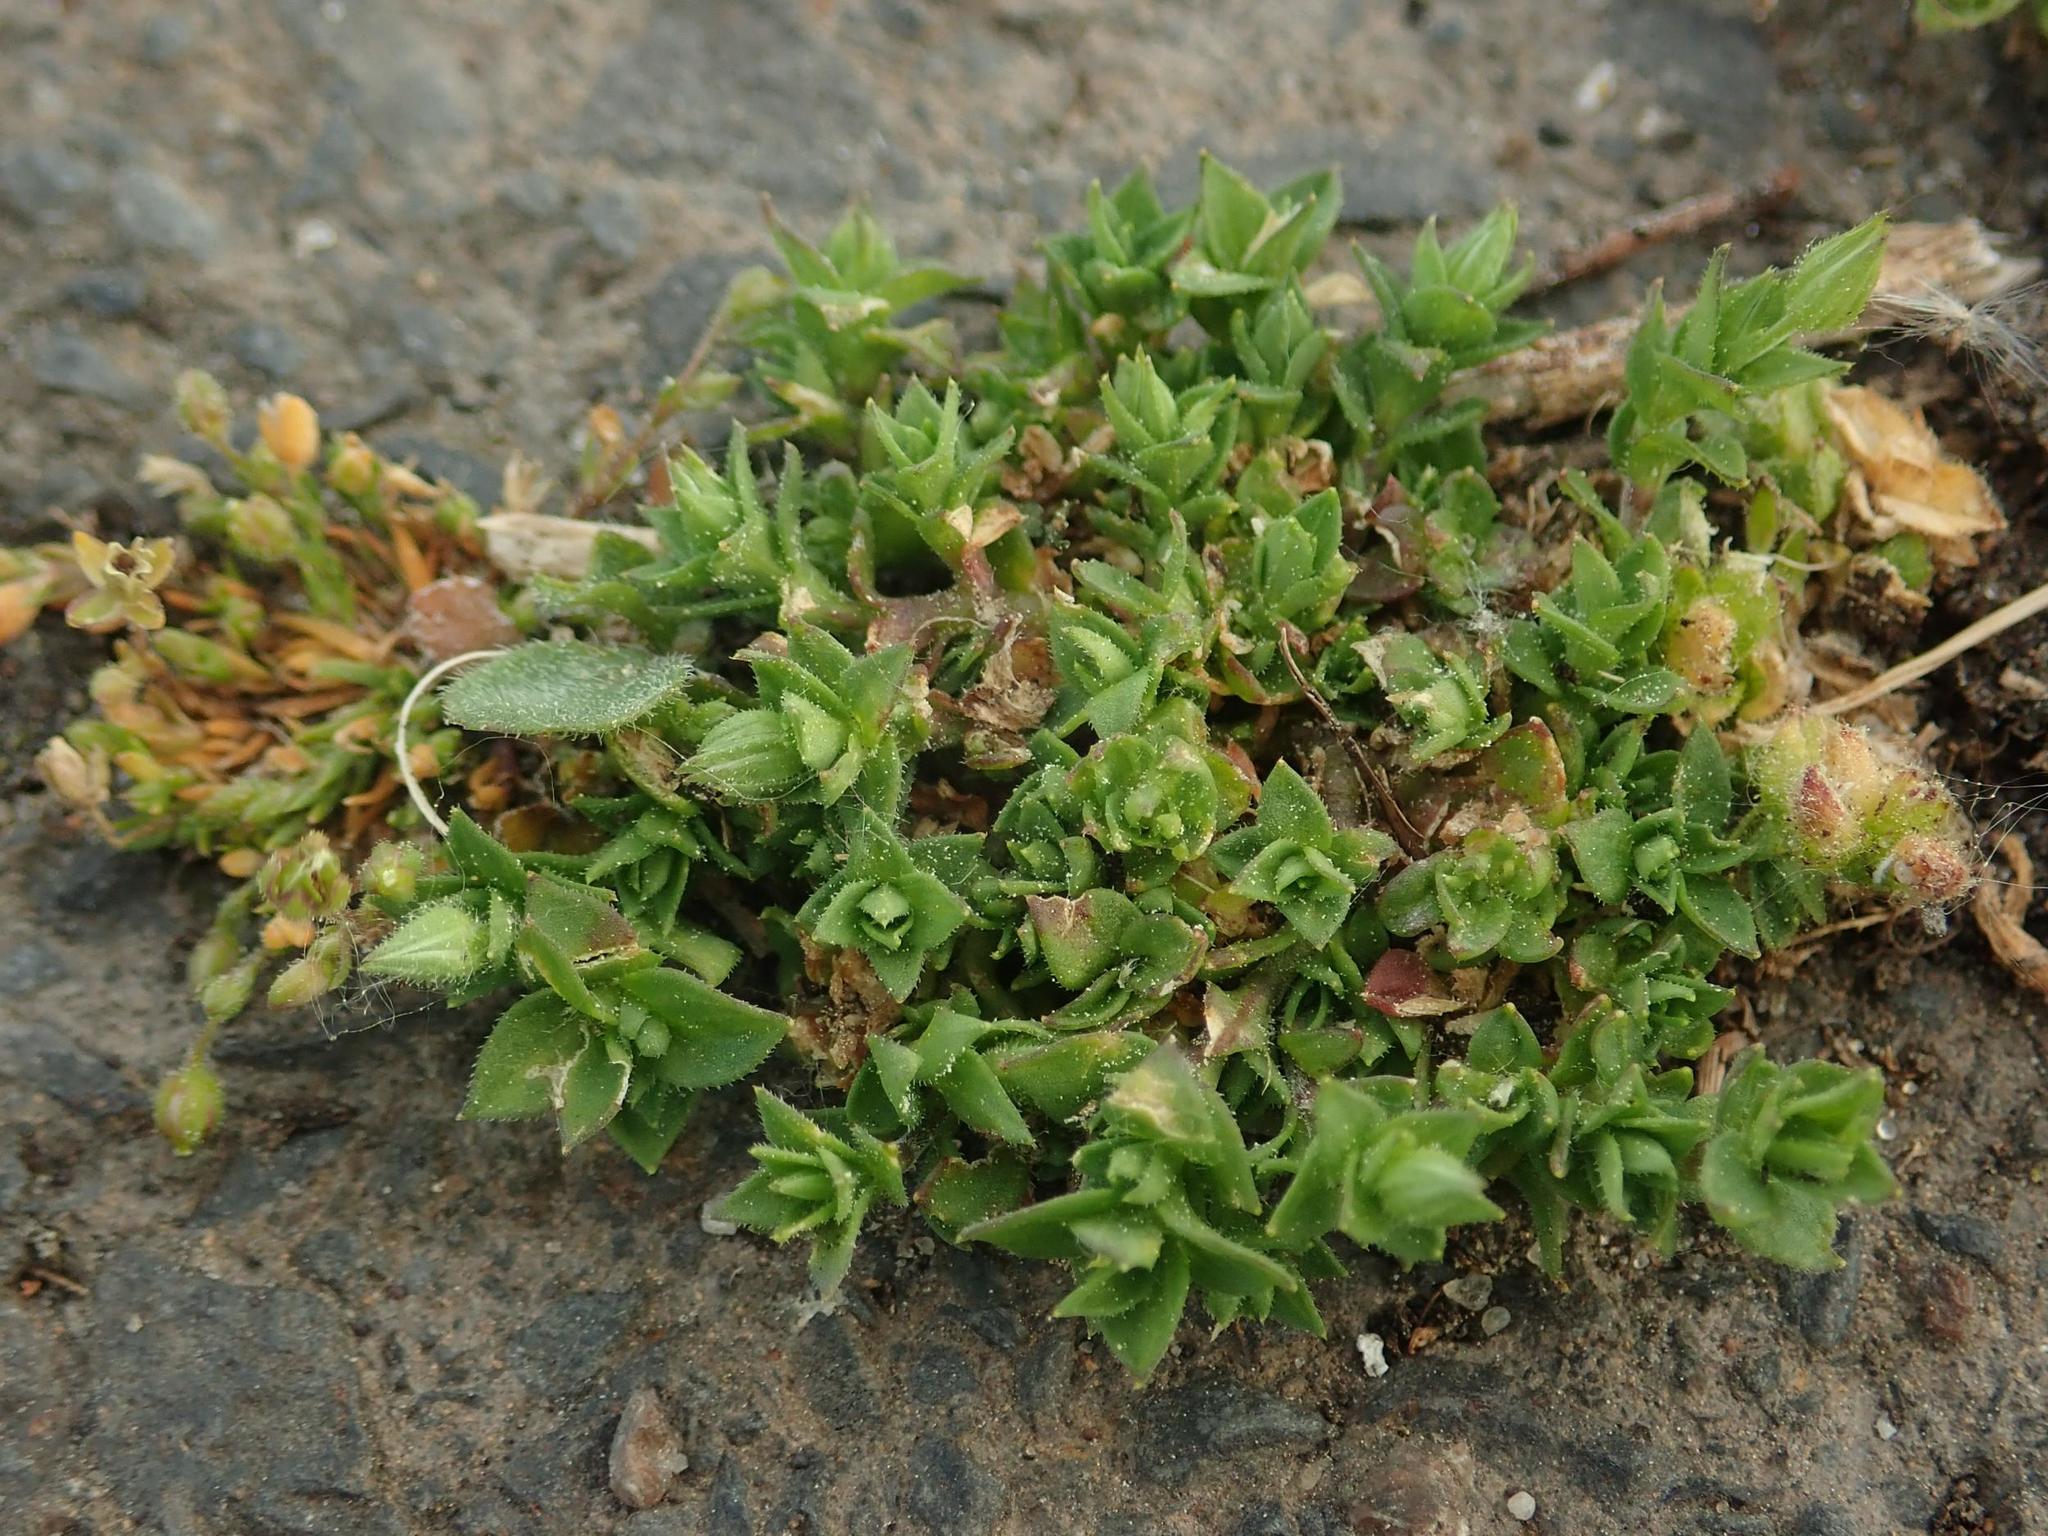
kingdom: Plantae
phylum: Tracheophyta
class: Magnoliopsida
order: Caryophyllales
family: Caryophyllaceae
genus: Arenaria
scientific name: Arenaria serpyllifolia
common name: Thyme-leaved sandwort
